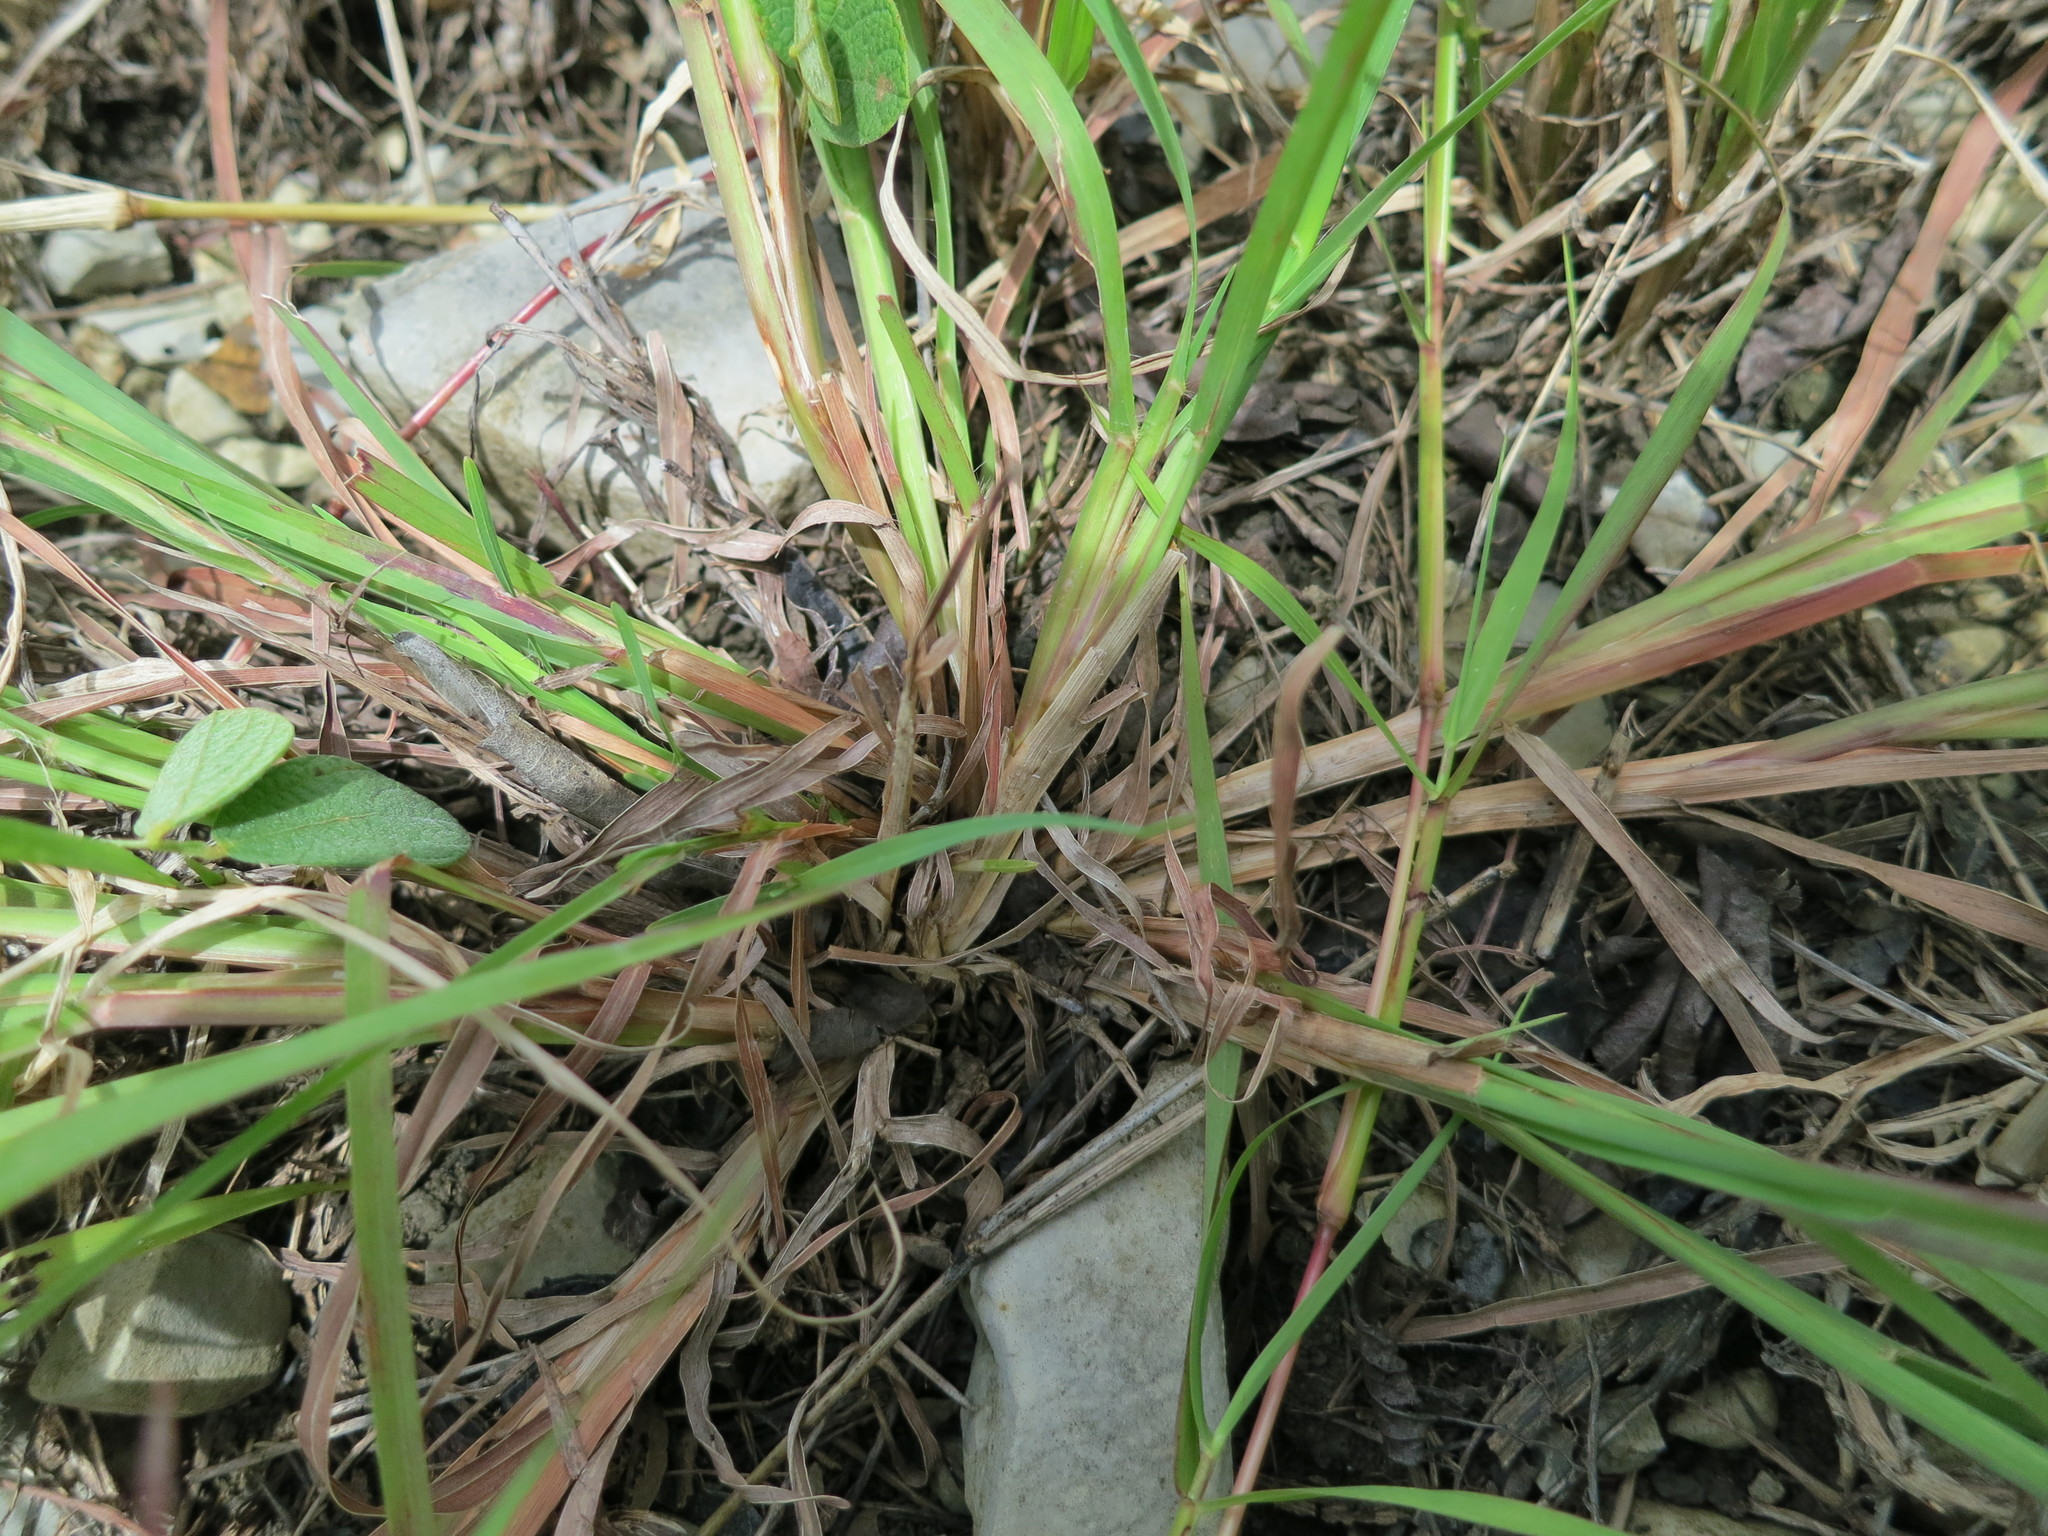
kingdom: Plantae
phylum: Tracheophyta
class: Liliopsida
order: Poales
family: Poaceae
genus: Heteropogon
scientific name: Heteropogon contortus
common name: Tanglehead
